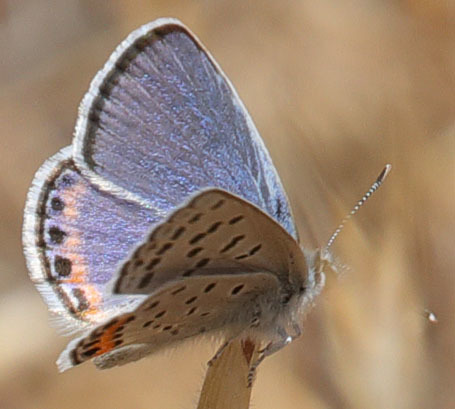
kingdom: Animalia
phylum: Arthropoda
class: Insecta
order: Lepidoptera
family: Lycaenidae
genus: Icaricia
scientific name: Icaricia acmon
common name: Acmon blue
